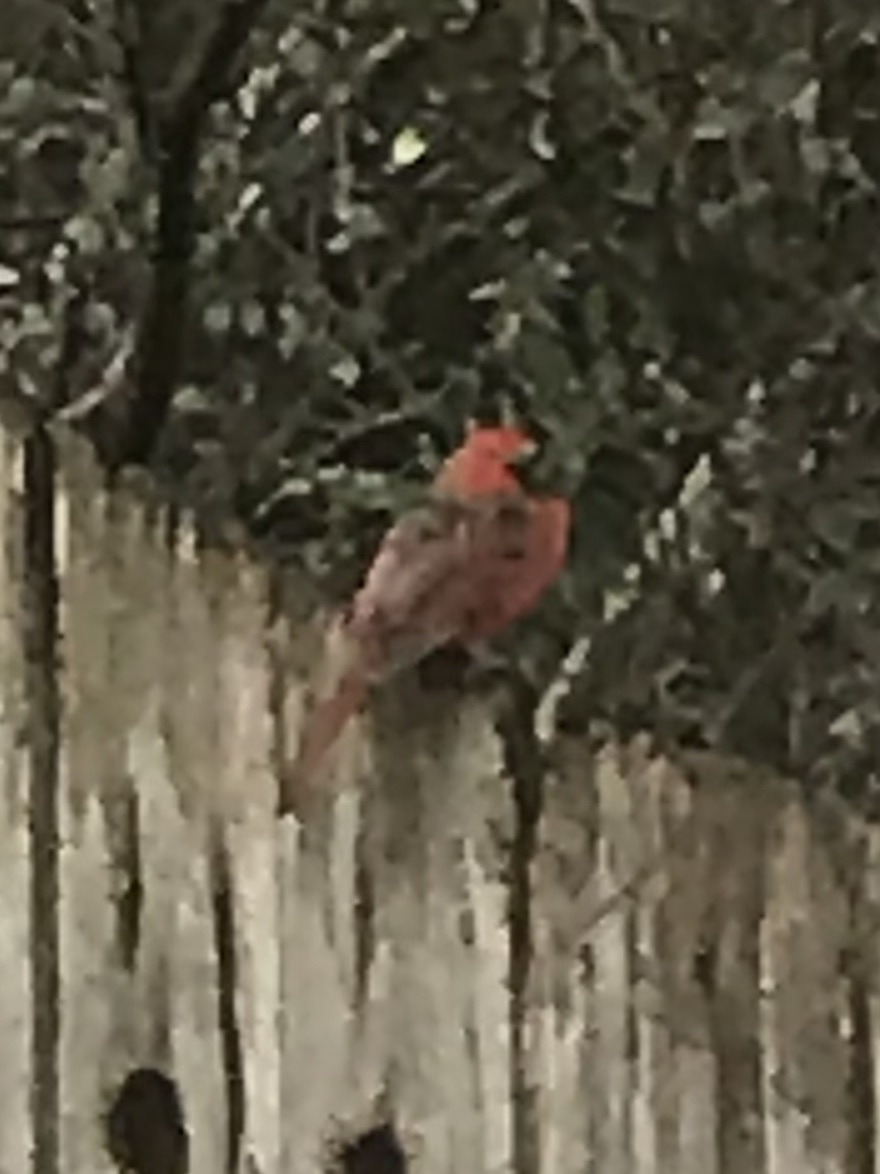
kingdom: Animalia
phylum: Chordata
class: Aves
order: Passeriformes
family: Cardinalidae
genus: Cardinalis
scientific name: Cardinalis cardinalis
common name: Northern cardinal
